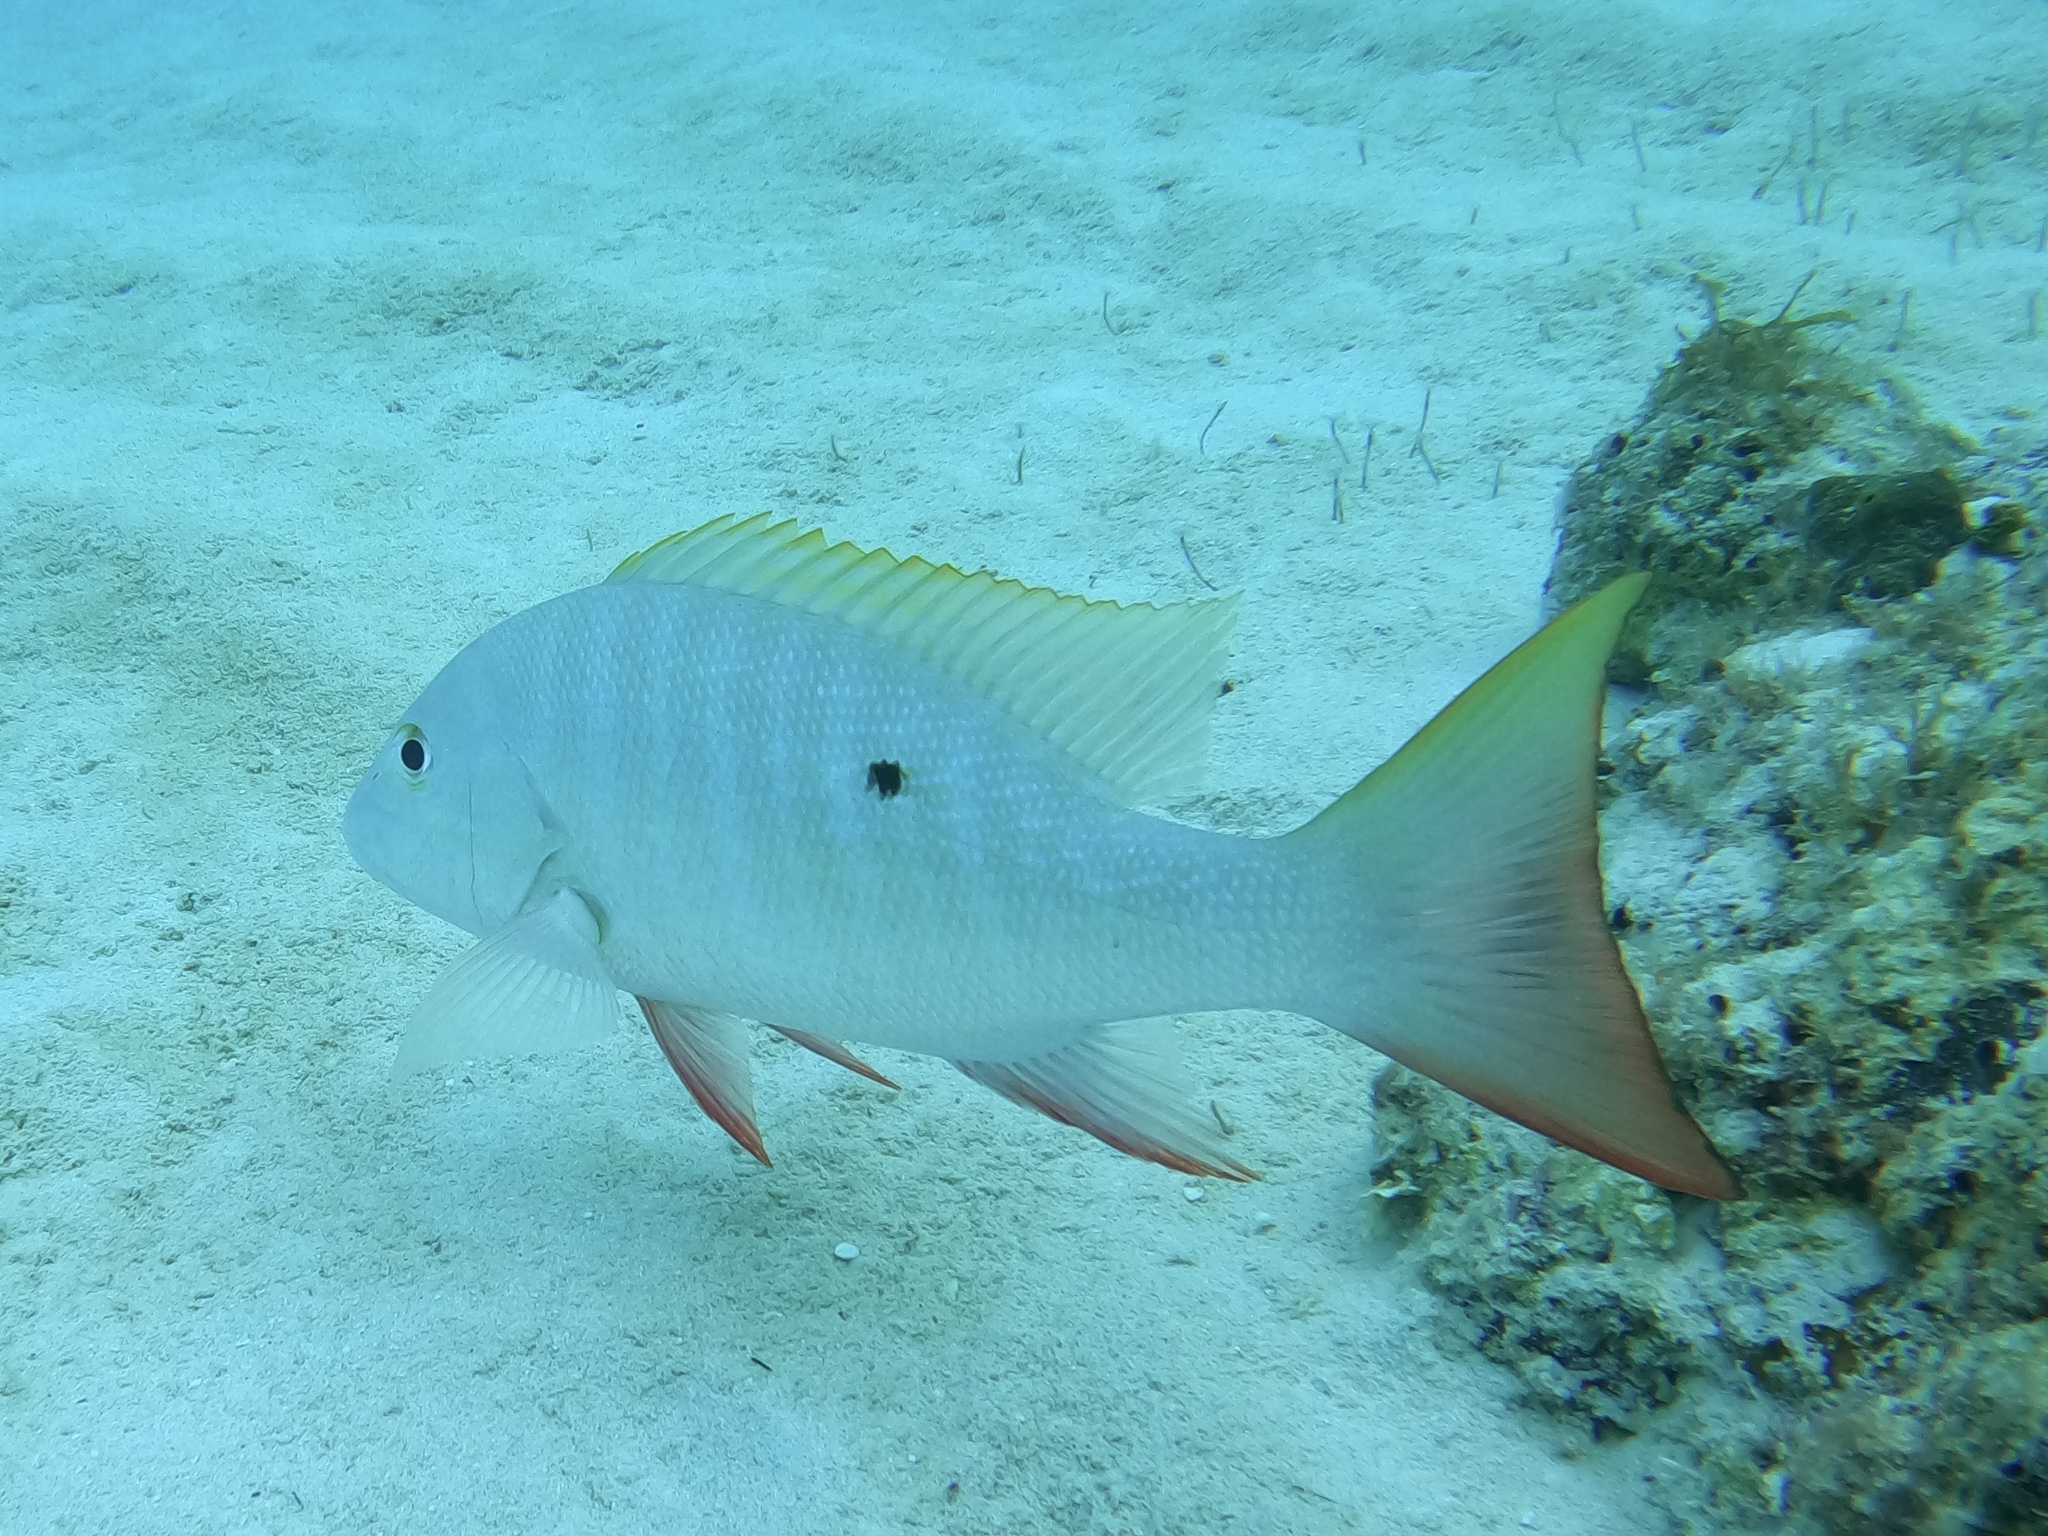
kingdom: Animalia
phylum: Chordata
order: Perciformes
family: Lutjanidae
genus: Lutjanus
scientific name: Lutjanus analis
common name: Mutton snapper
